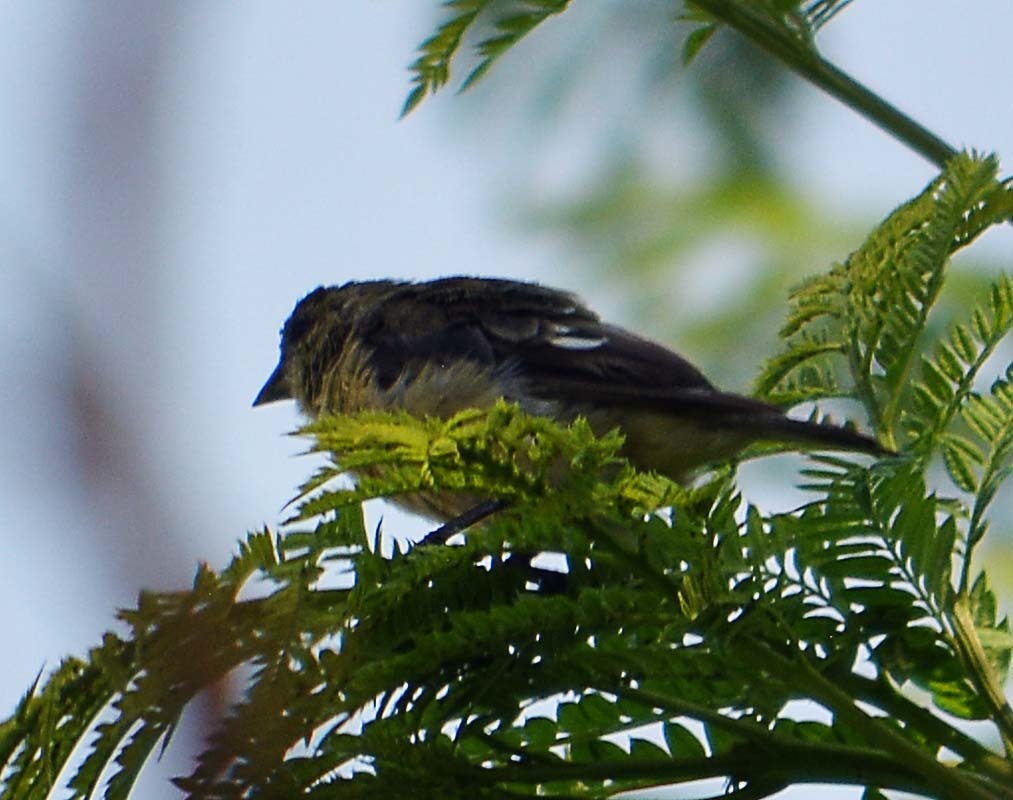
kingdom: Animalia
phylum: Chordata
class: Aves
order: Passeriformes
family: Fringillidae
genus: Spinus
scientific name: Spinus psaltria
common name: Lesser goldfinch
